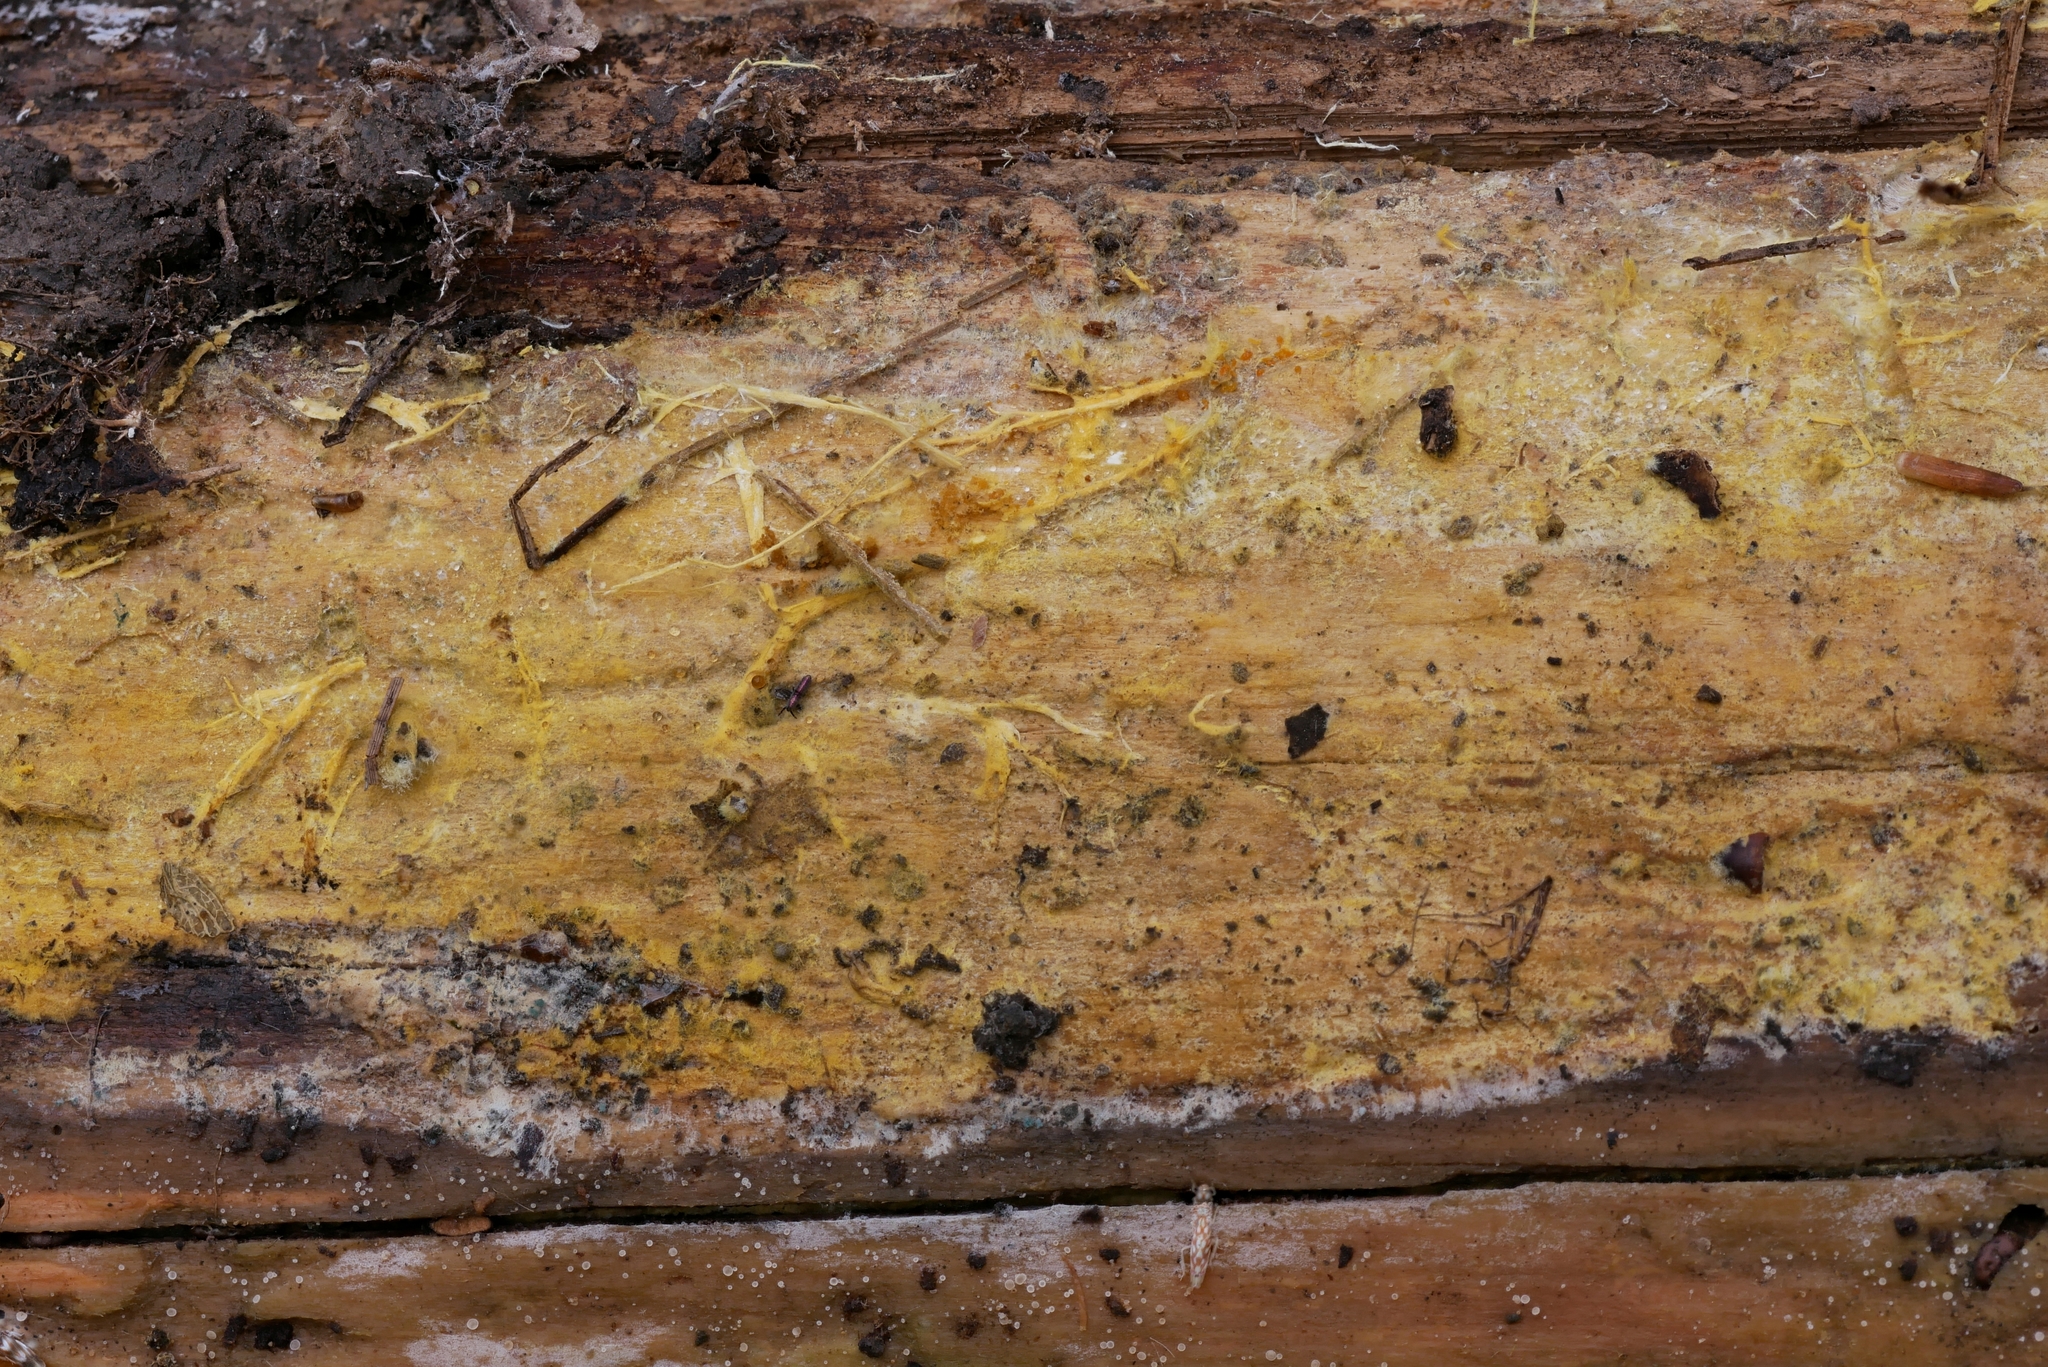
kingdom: Fungi
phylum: Ascomycota
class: Sordariomycetes
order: Xylariales
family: Hypoxylaceae
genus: Hypomontagnella
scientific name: Hypomontagnella submonticulosa
